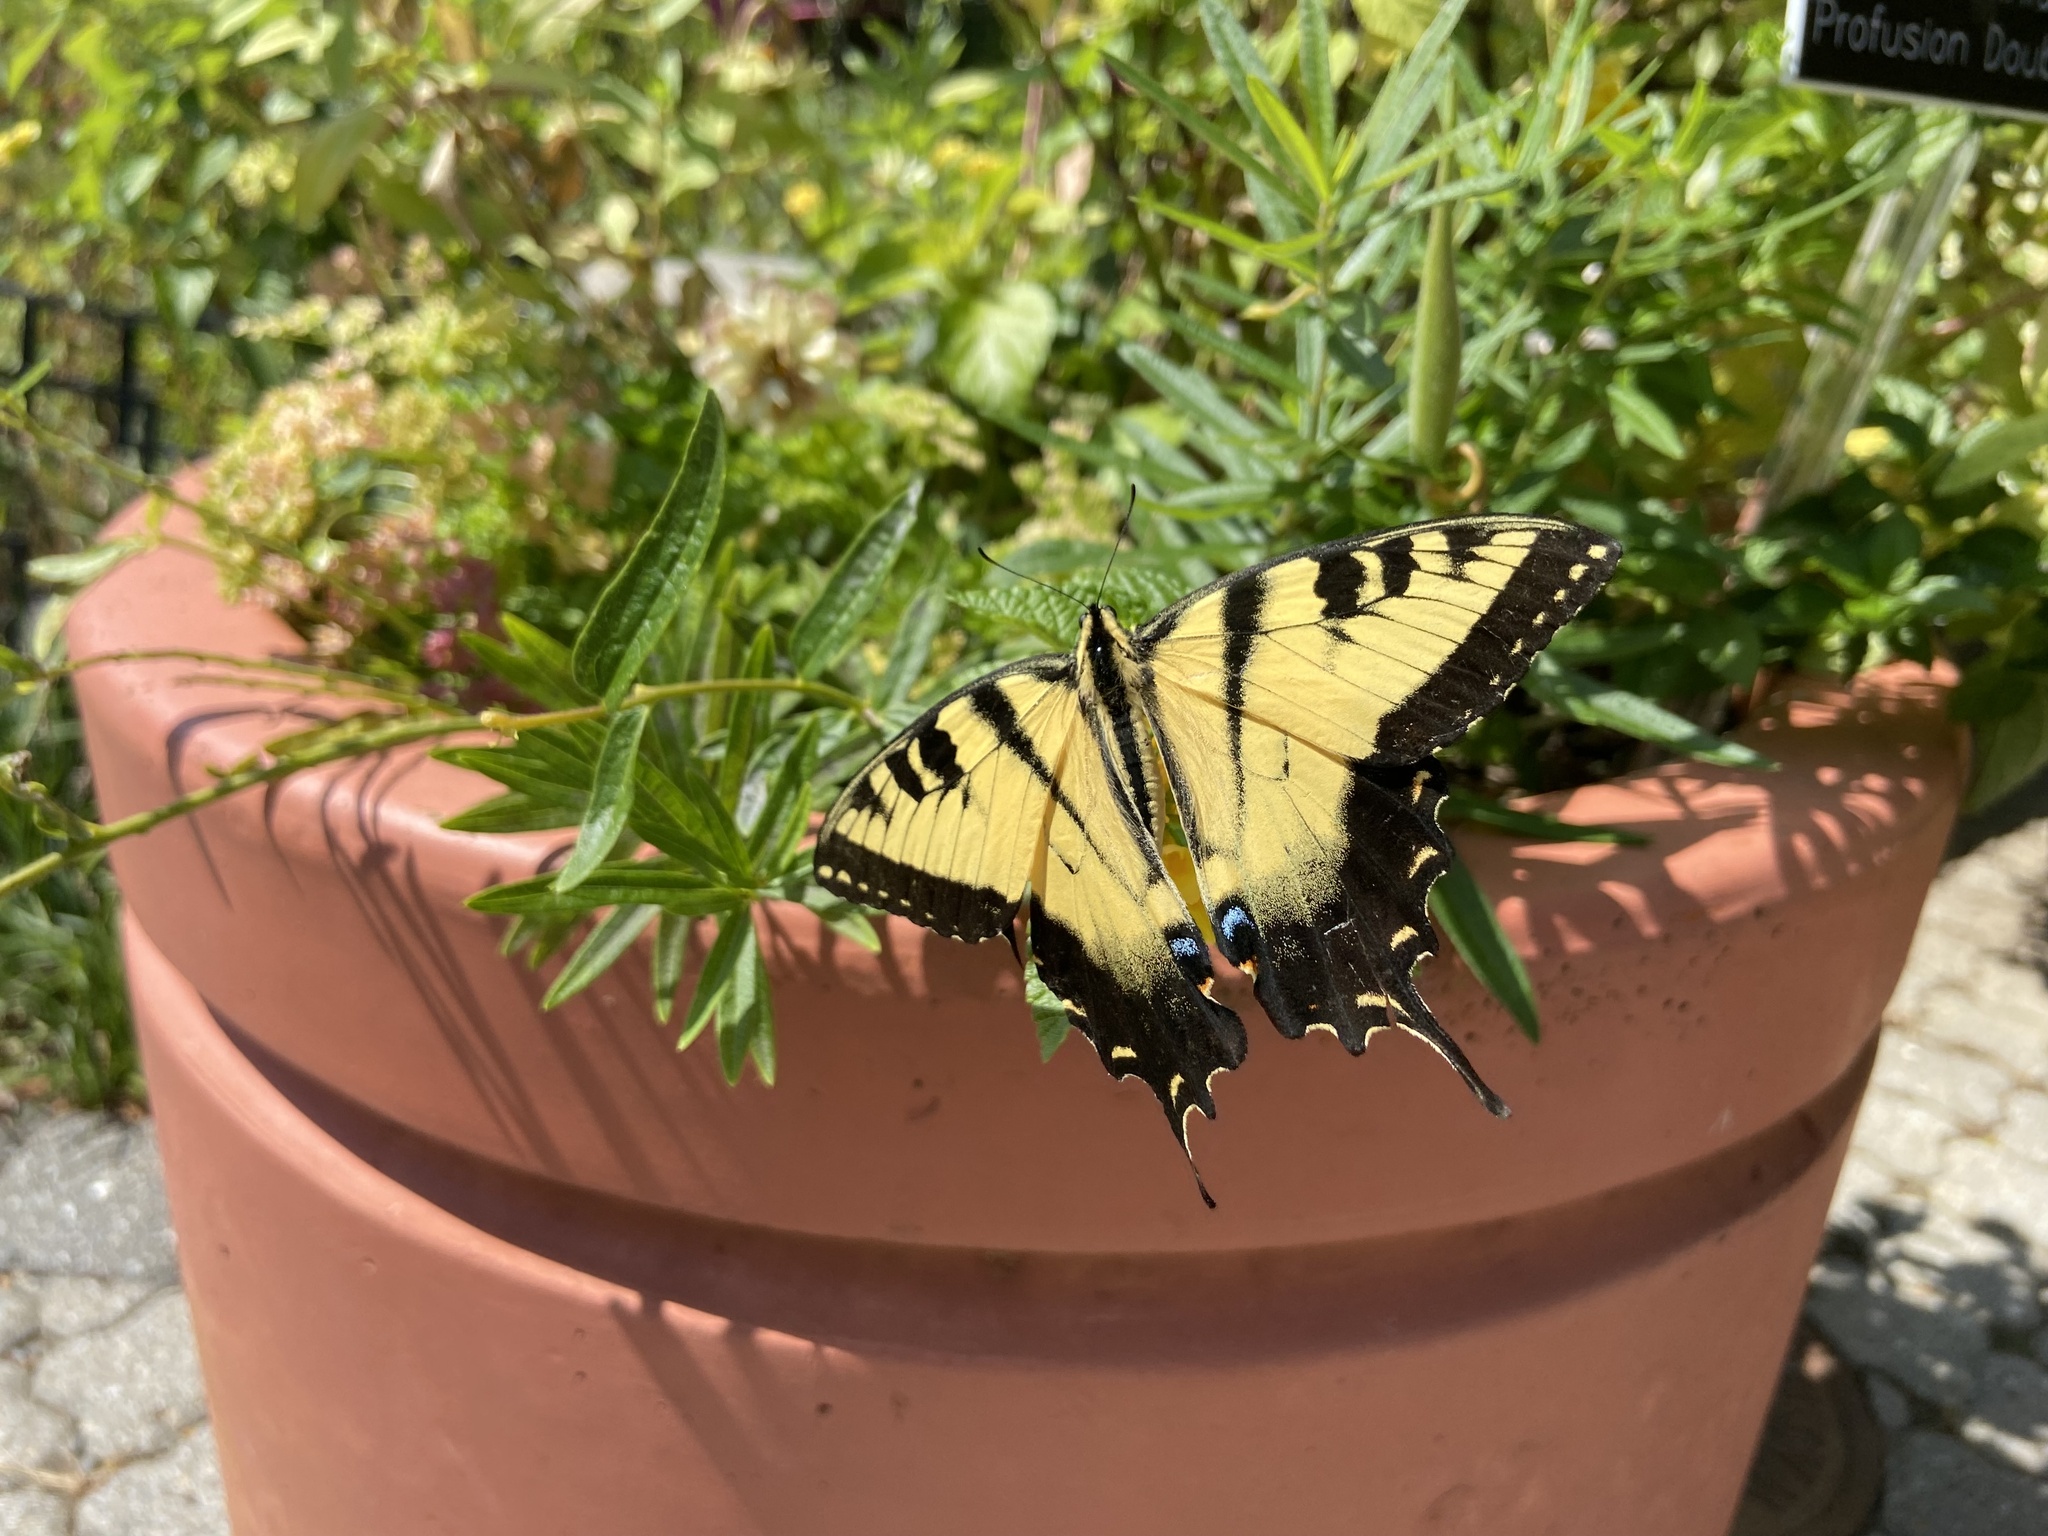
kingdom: Animalia
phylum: Arthropoda
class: Insecta
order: Lepidoptera
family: Papilionidae
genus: Papilio
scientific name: Papilio glaucus
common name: Tiger swallowtail
